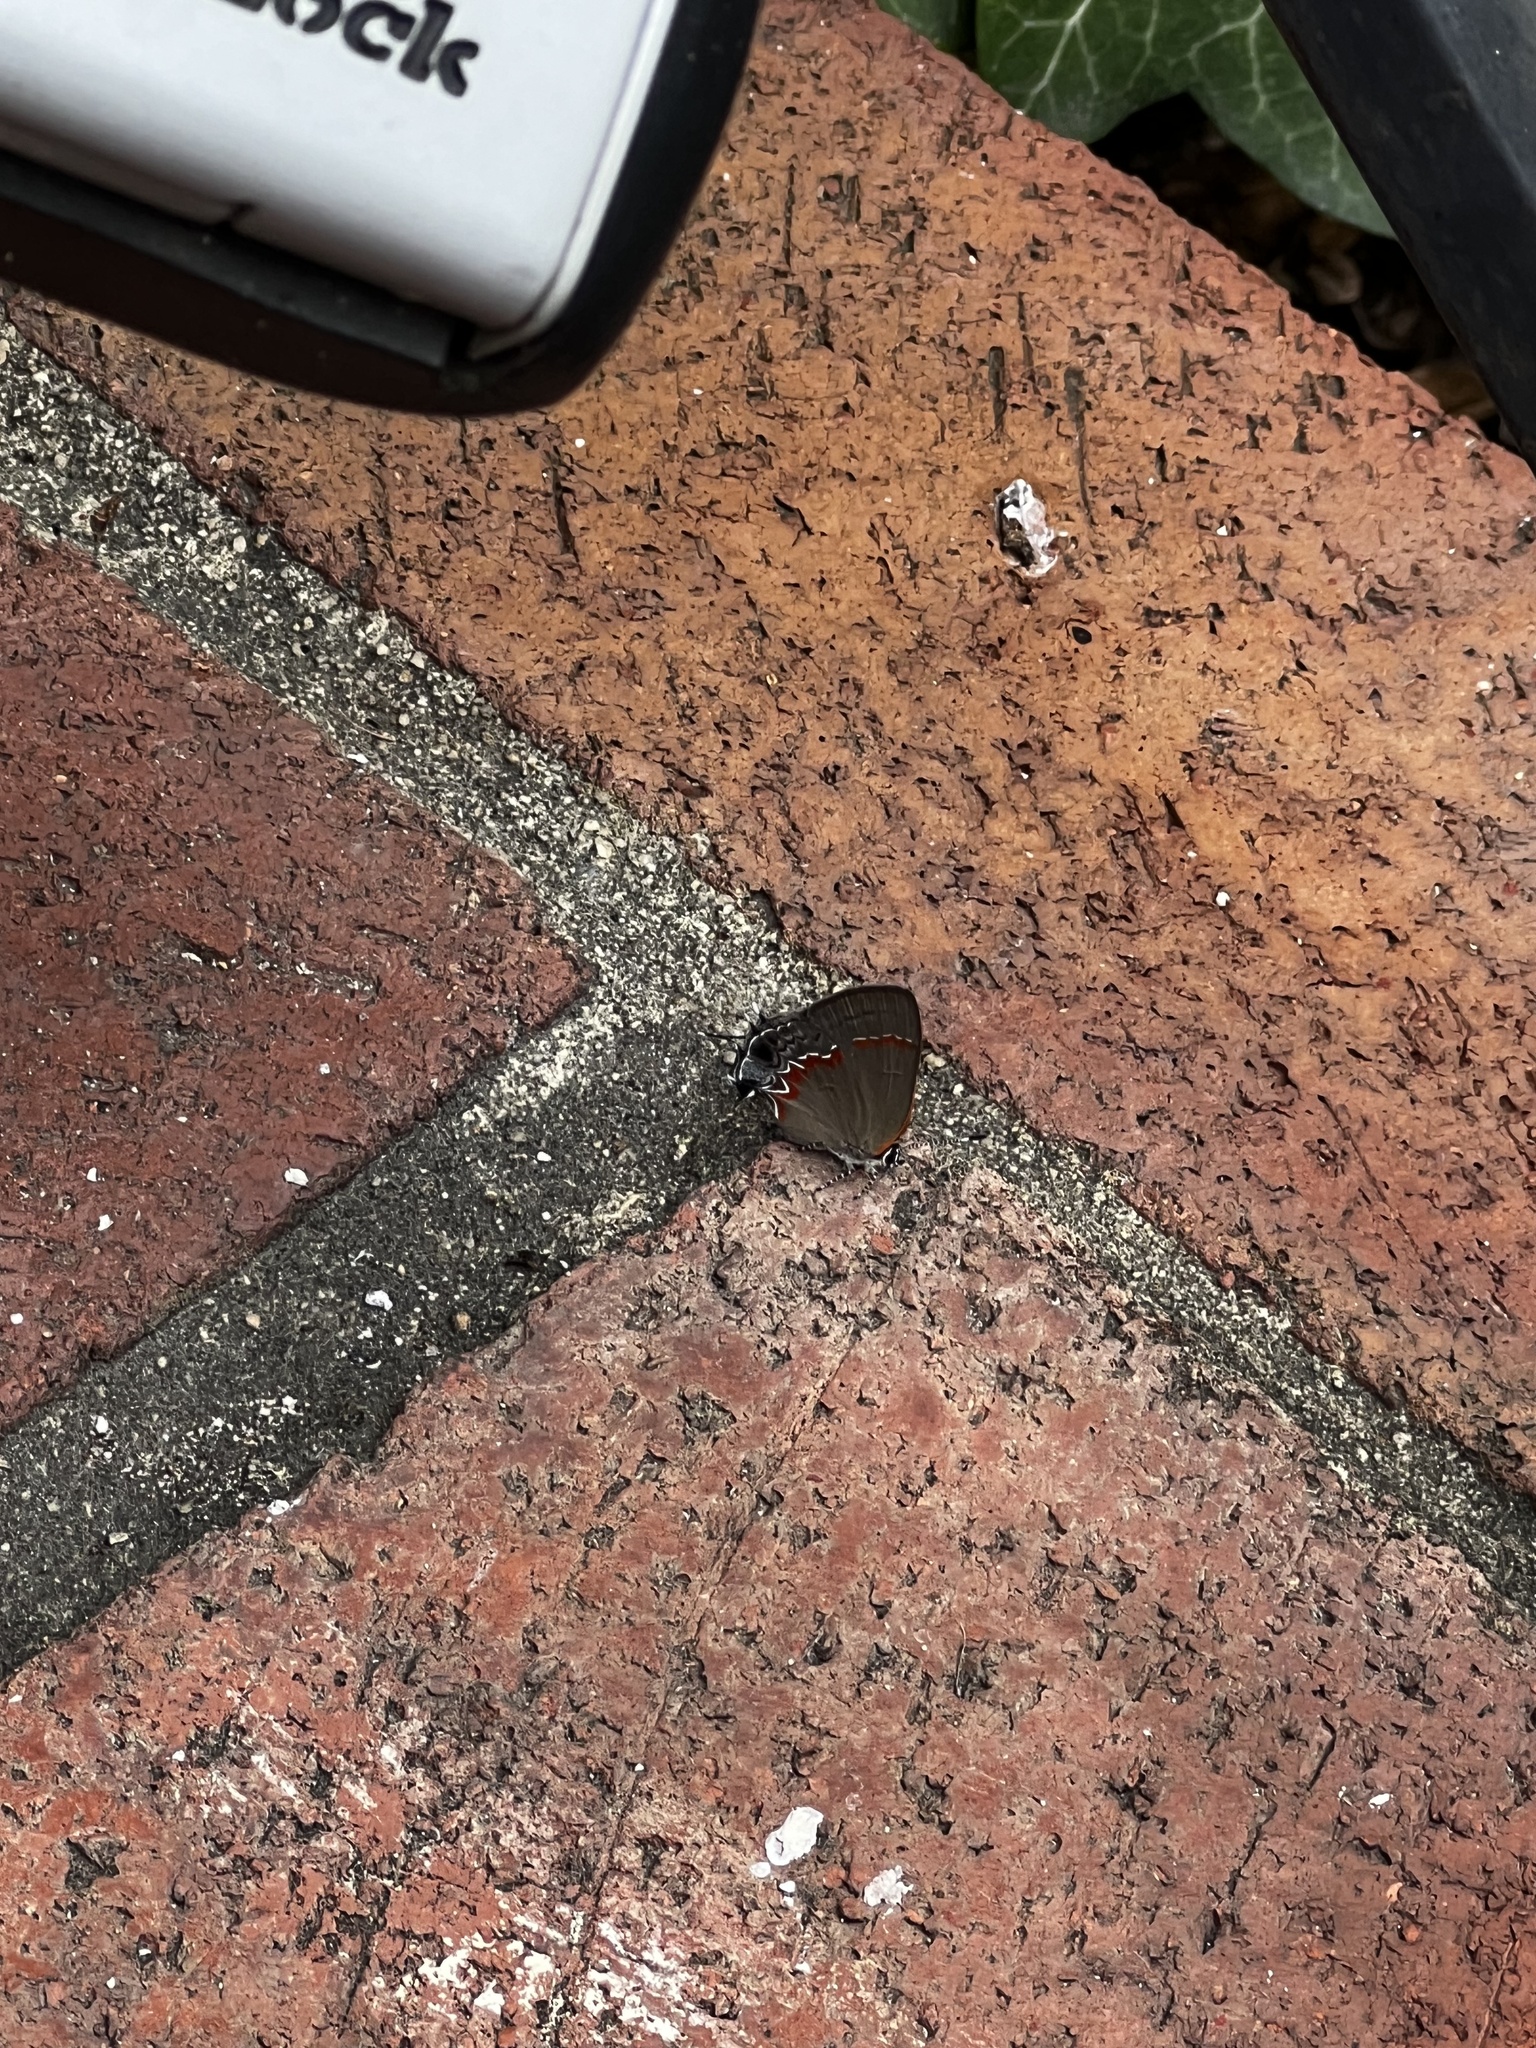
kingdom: Animalia
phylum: Arthropoda
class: Insecta
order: Lepidoptera
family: Lycaenidae
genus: Calycopis
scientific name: Calycopis cecrops
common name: Red-banded hairstreak
